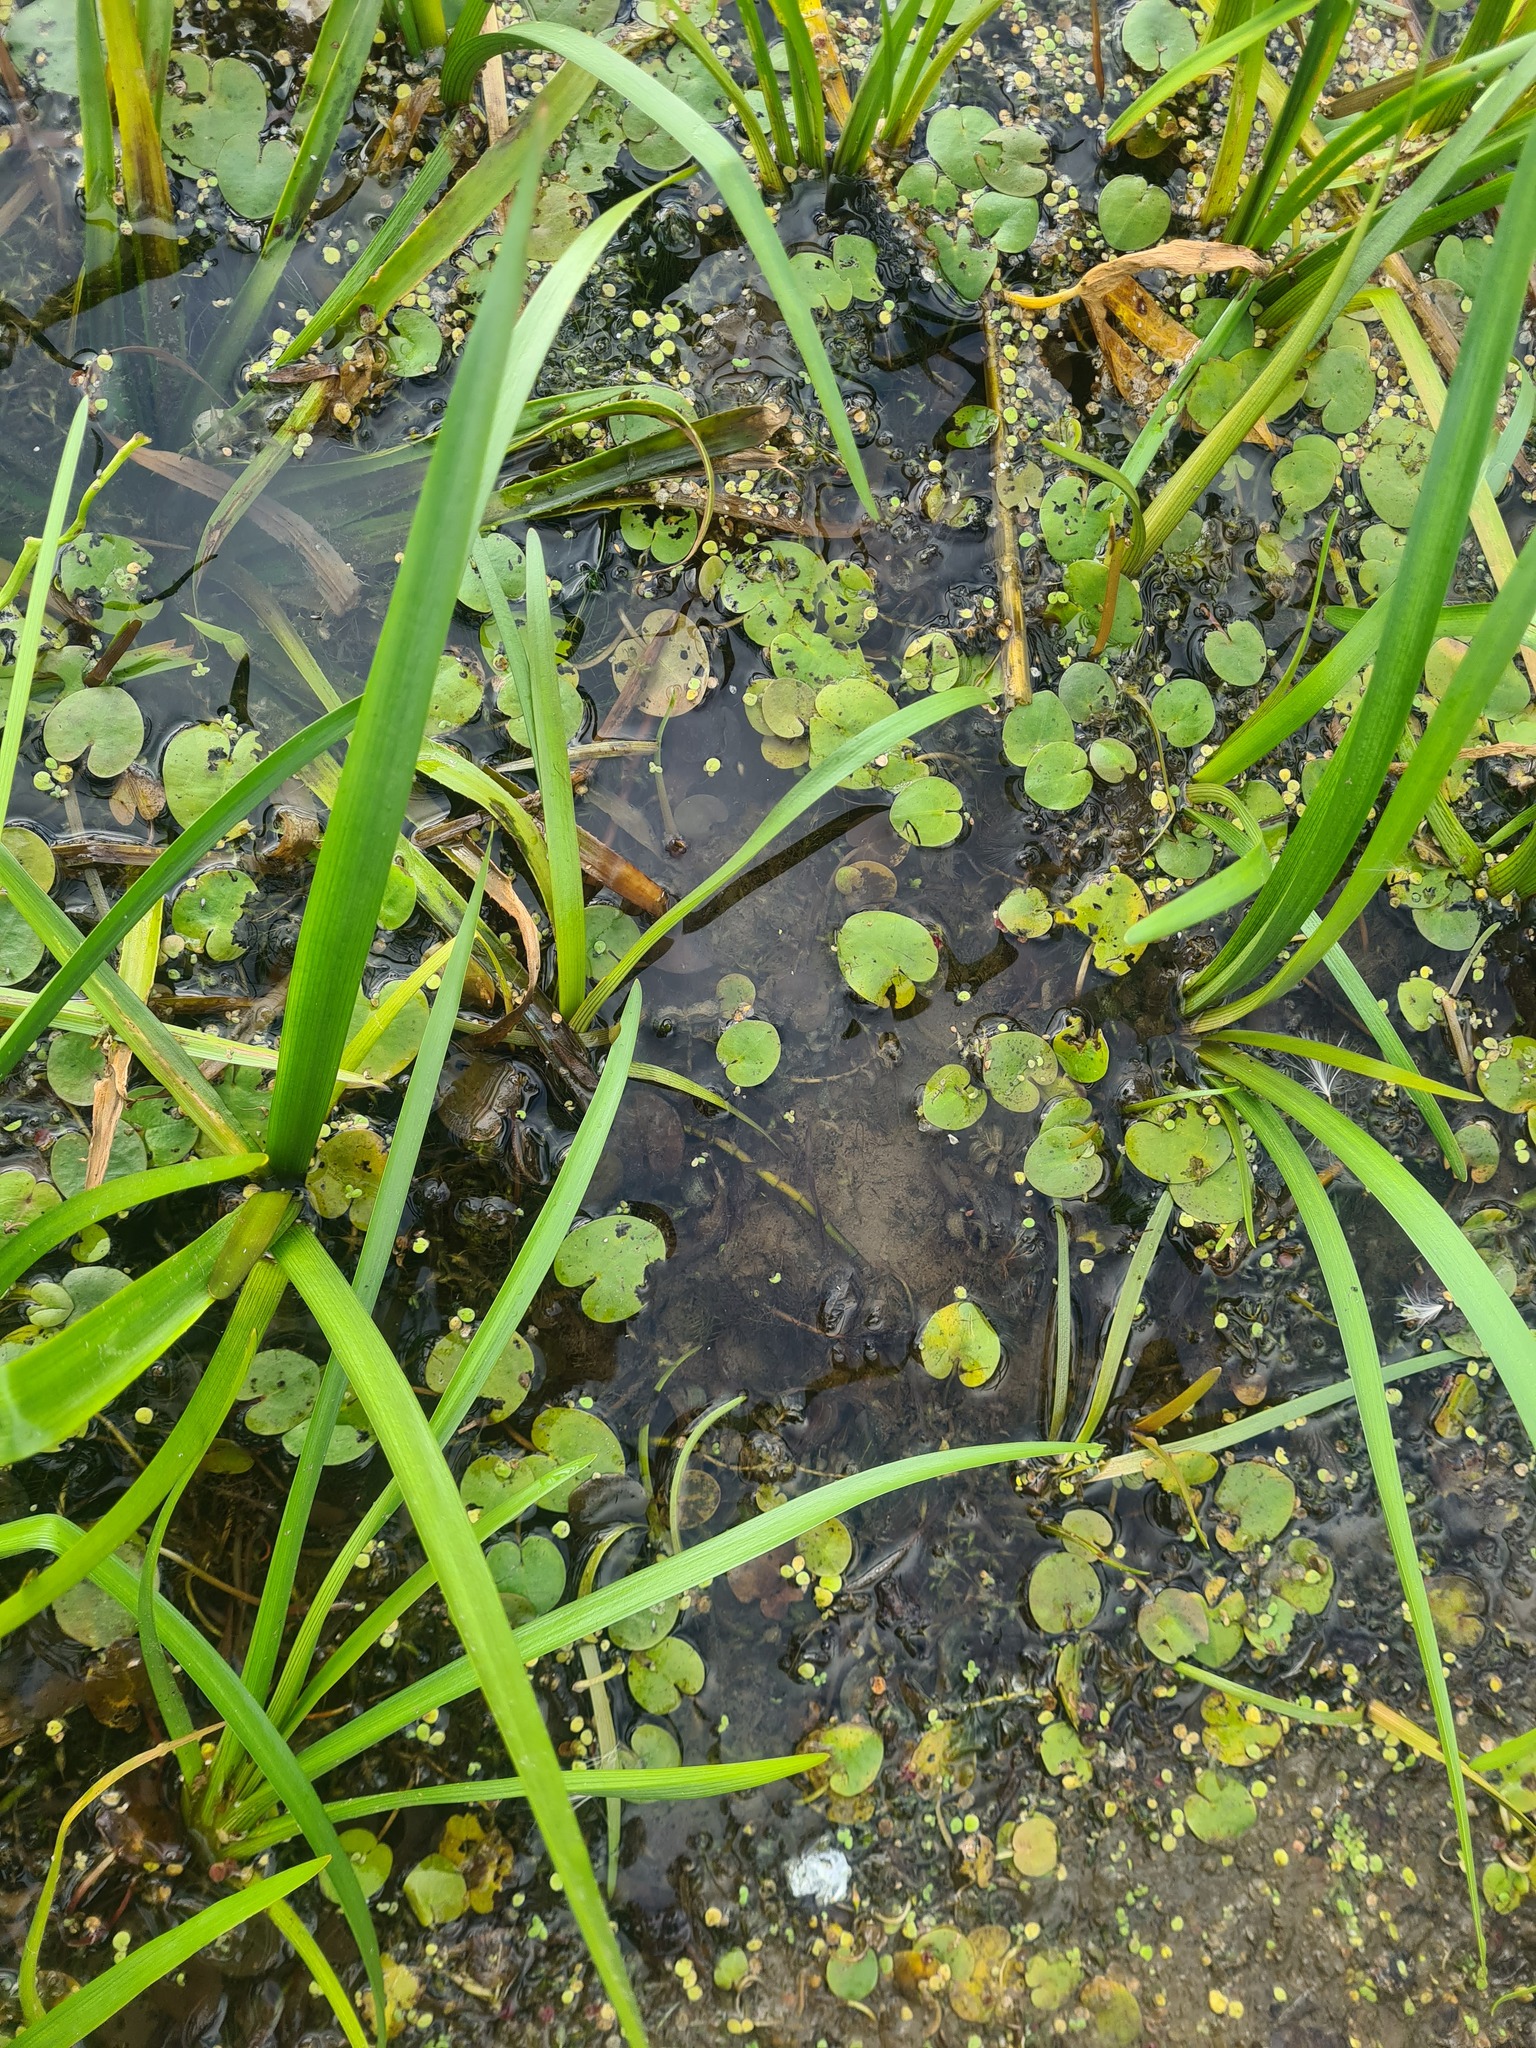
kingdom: Plantae
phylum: Tracheophyta
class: Liliopsida
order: Alismatales
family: Hydrocharitaceae
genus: Stratiotes
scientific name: Stratiotes aloides
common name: Water-soldier
